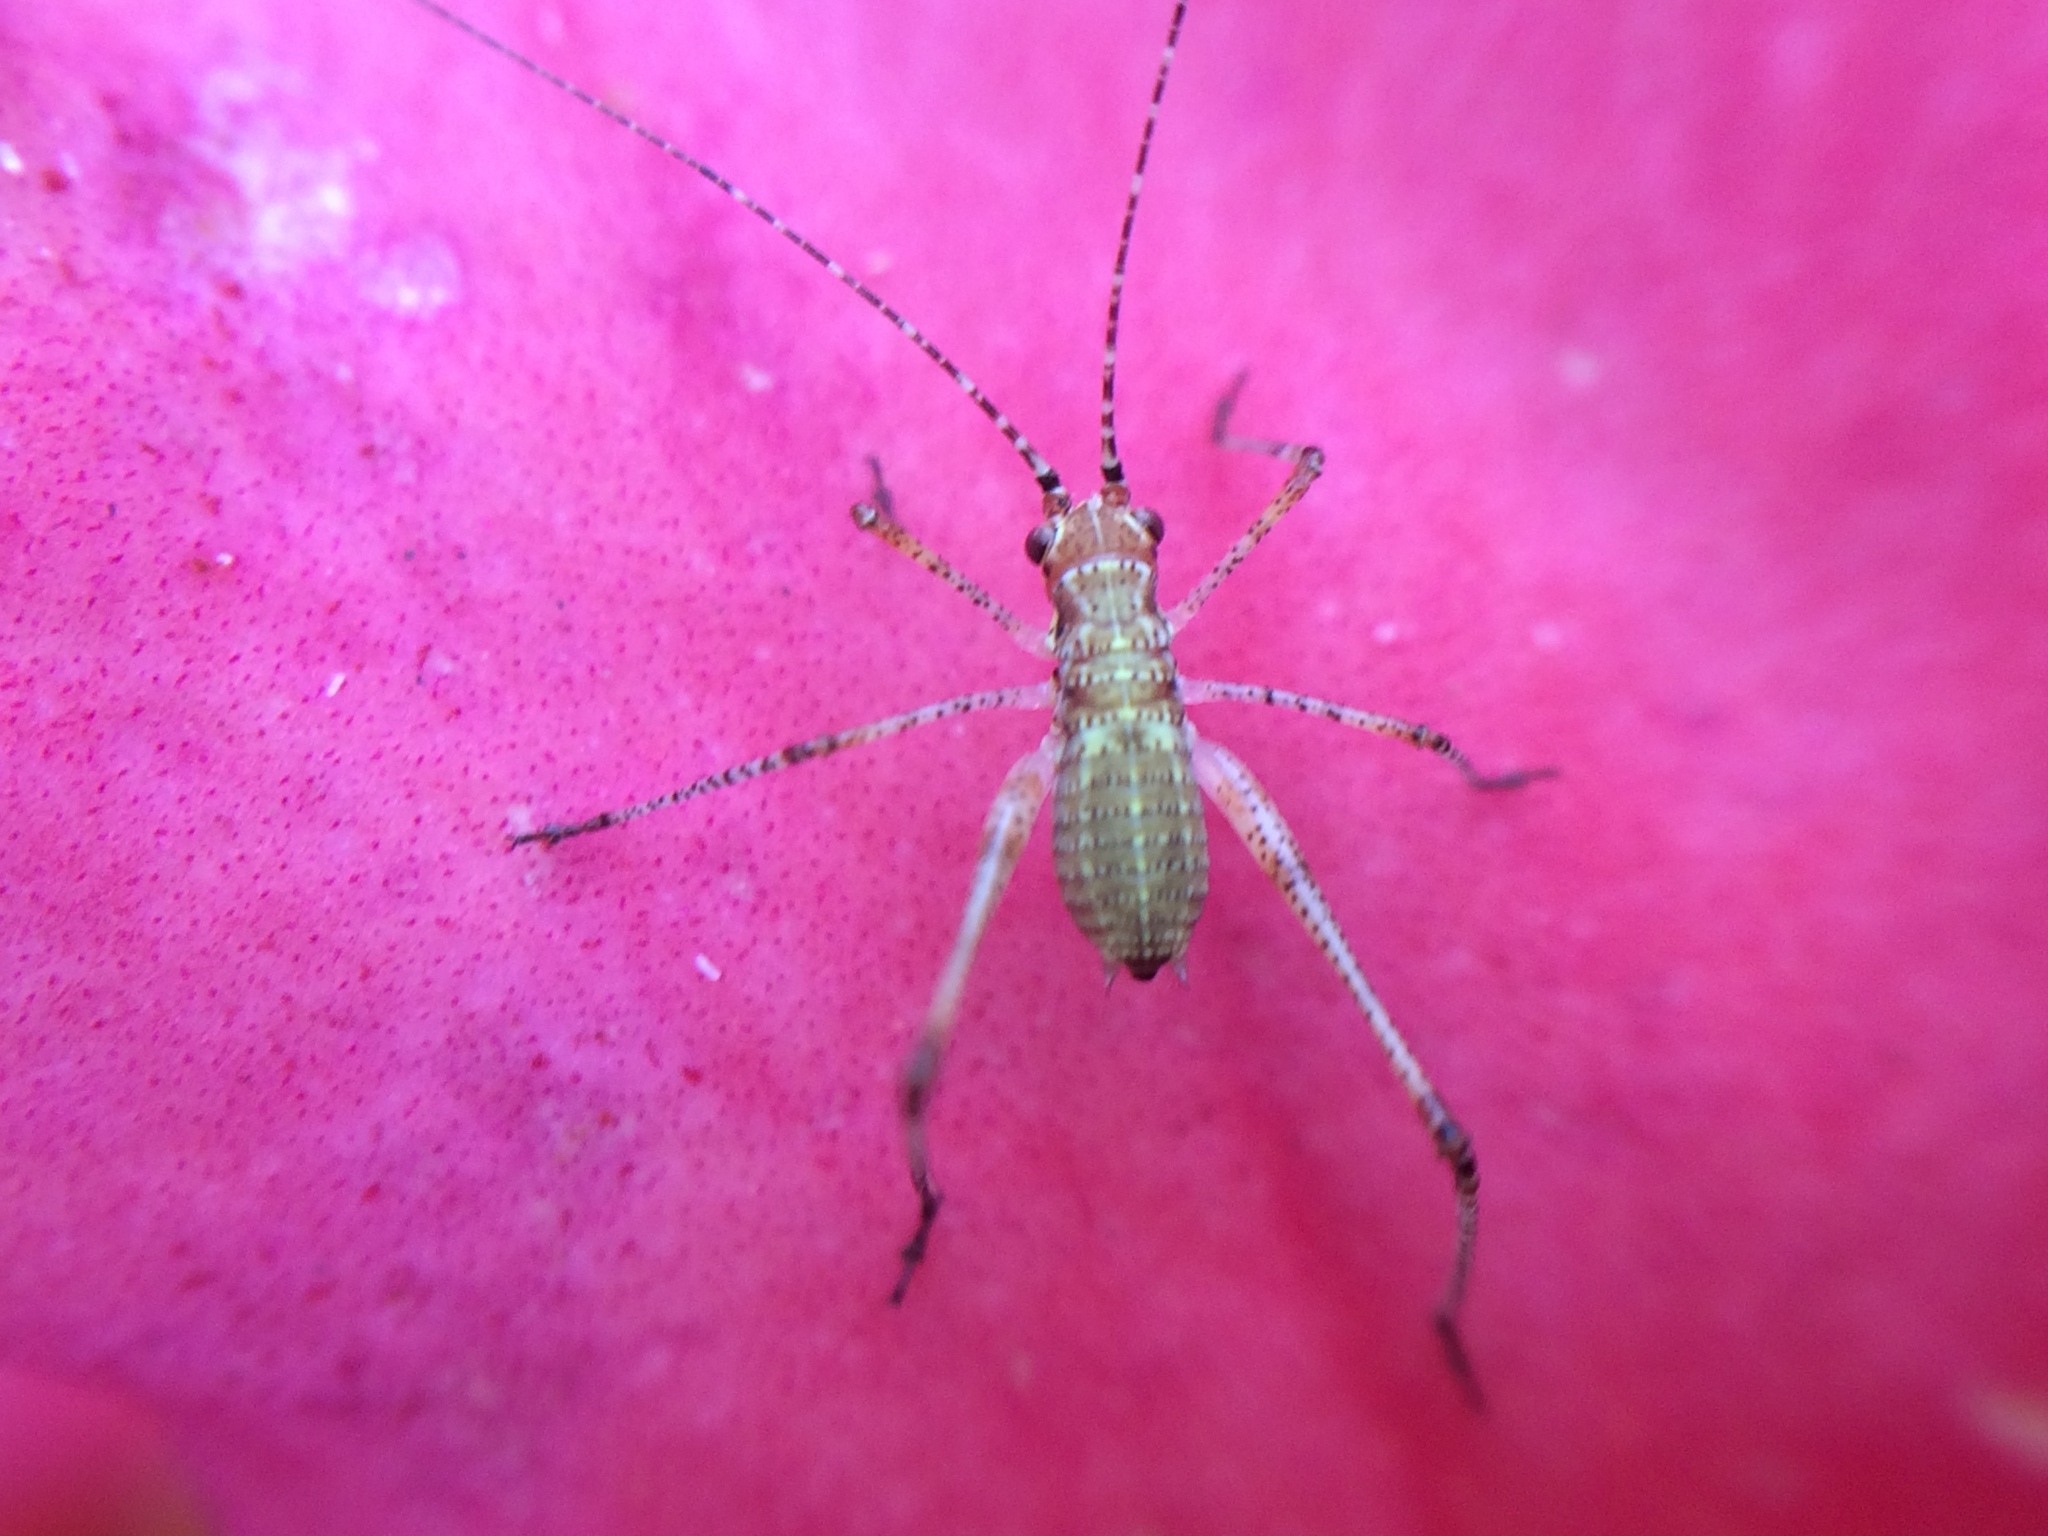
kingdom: Animalia
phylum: Arthropoda
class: Insecta
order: Orthoptera
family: Tettigoniidae
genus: Phaneroptera
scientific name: Phaneroptera nana
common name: Southern sickle bush-cricket
